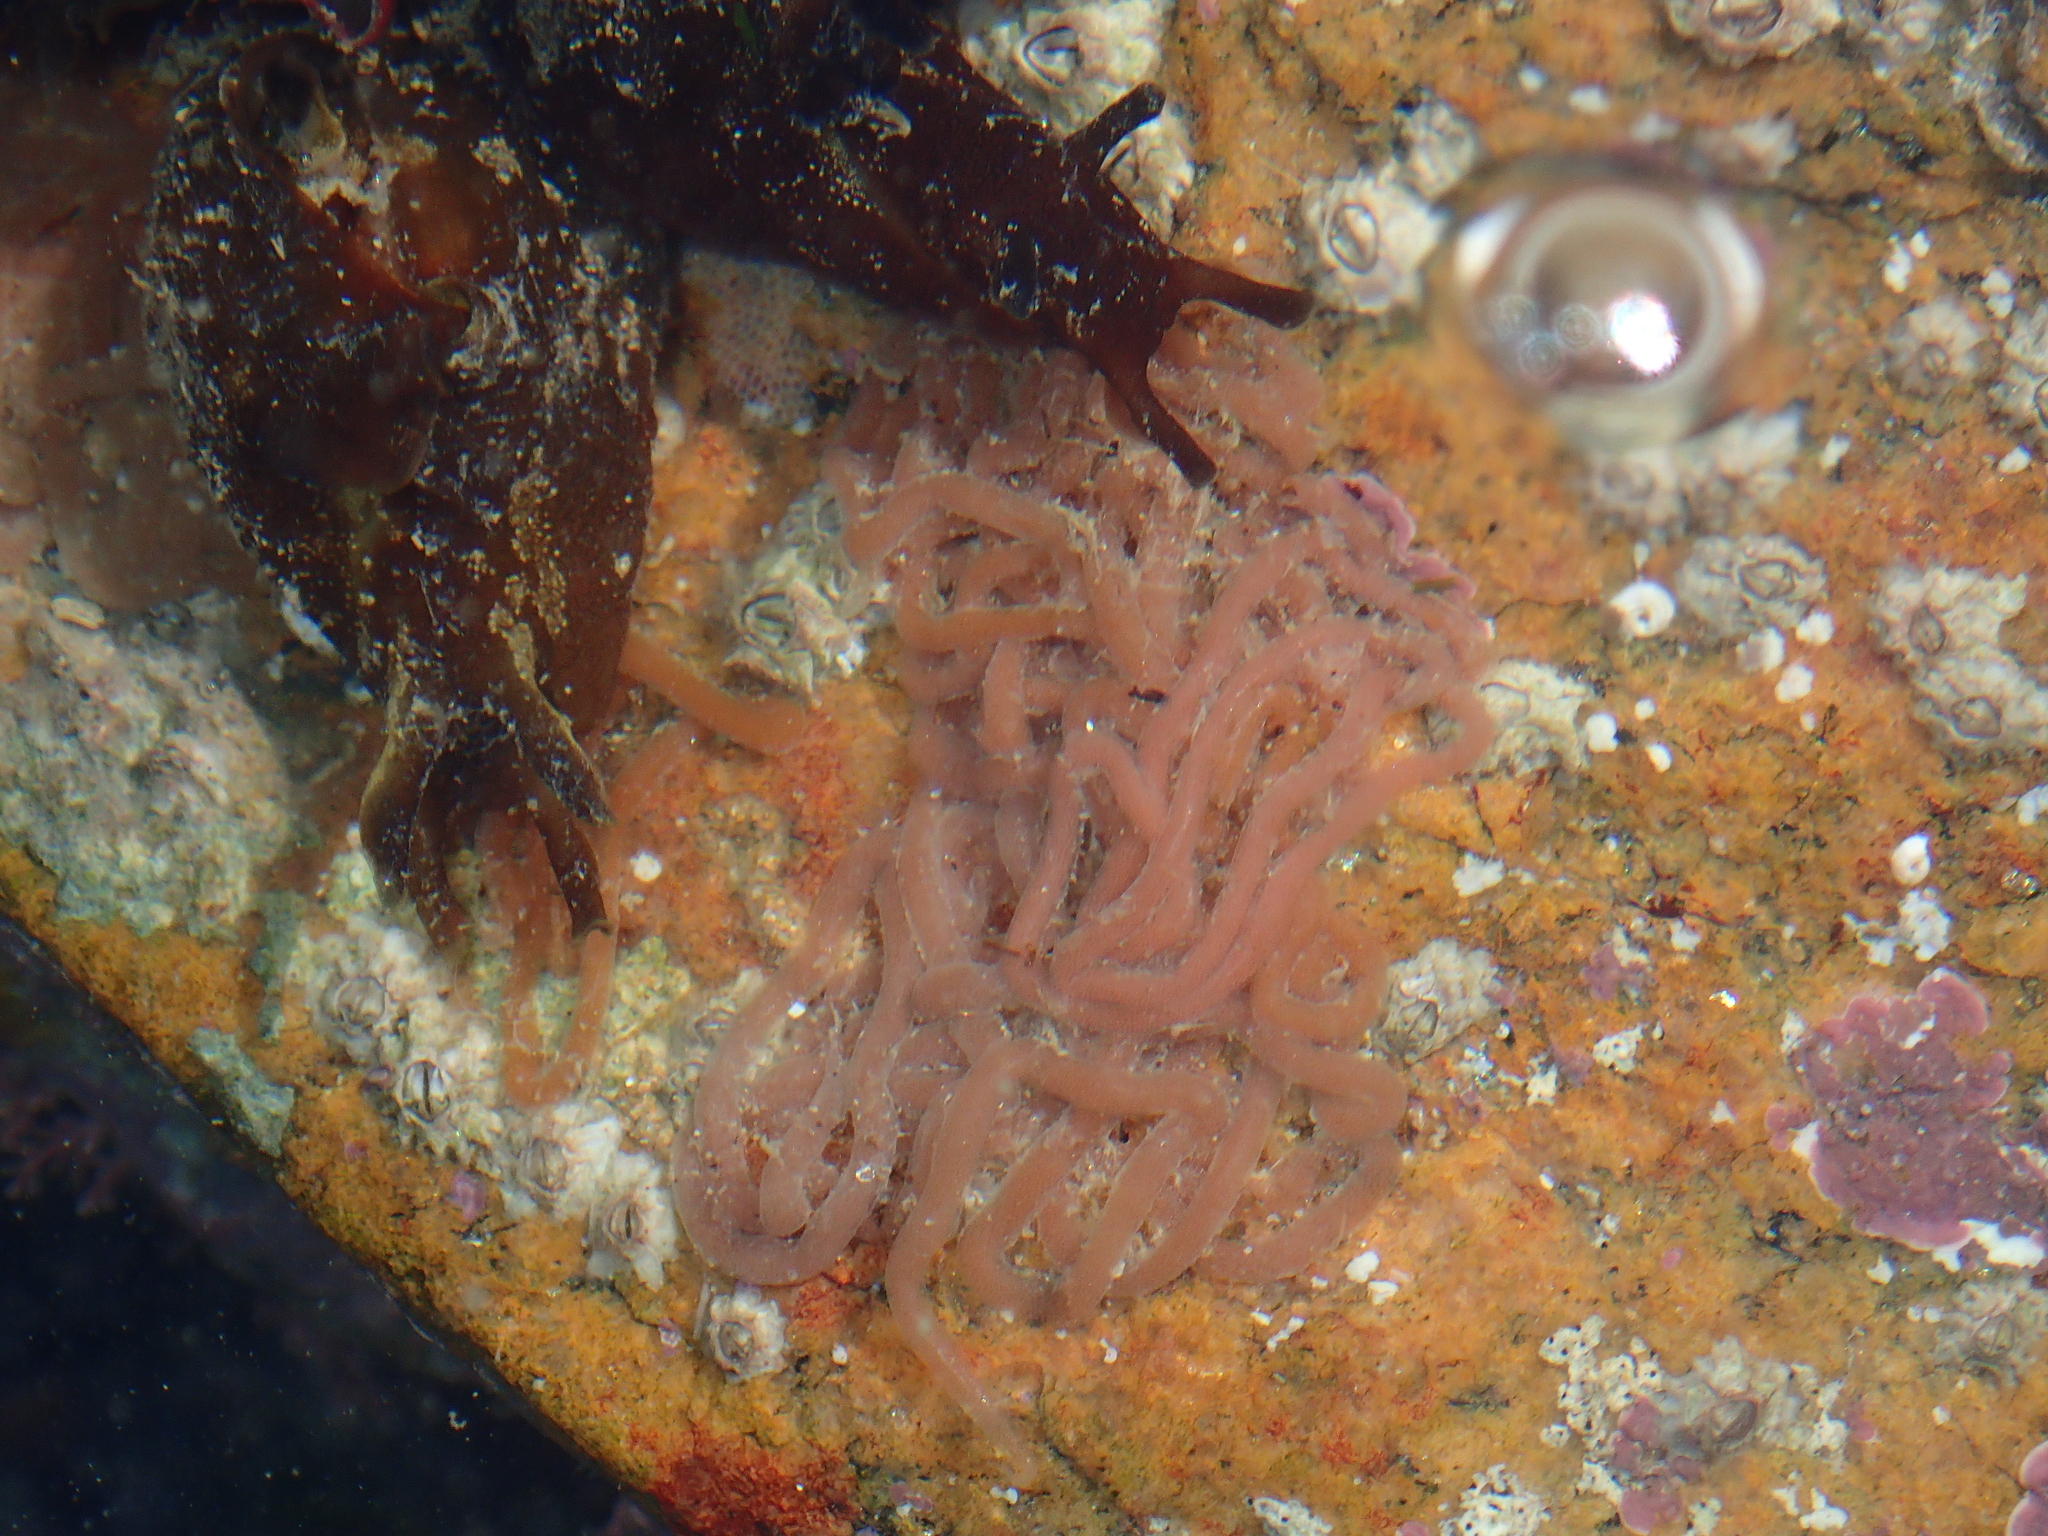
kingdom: Animalia
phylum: Mollusca
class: Gastropoda
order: Aplysiida
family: Aplysiidae
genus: Aplysia
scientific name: Aplysia punctata
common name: Common sea hare
